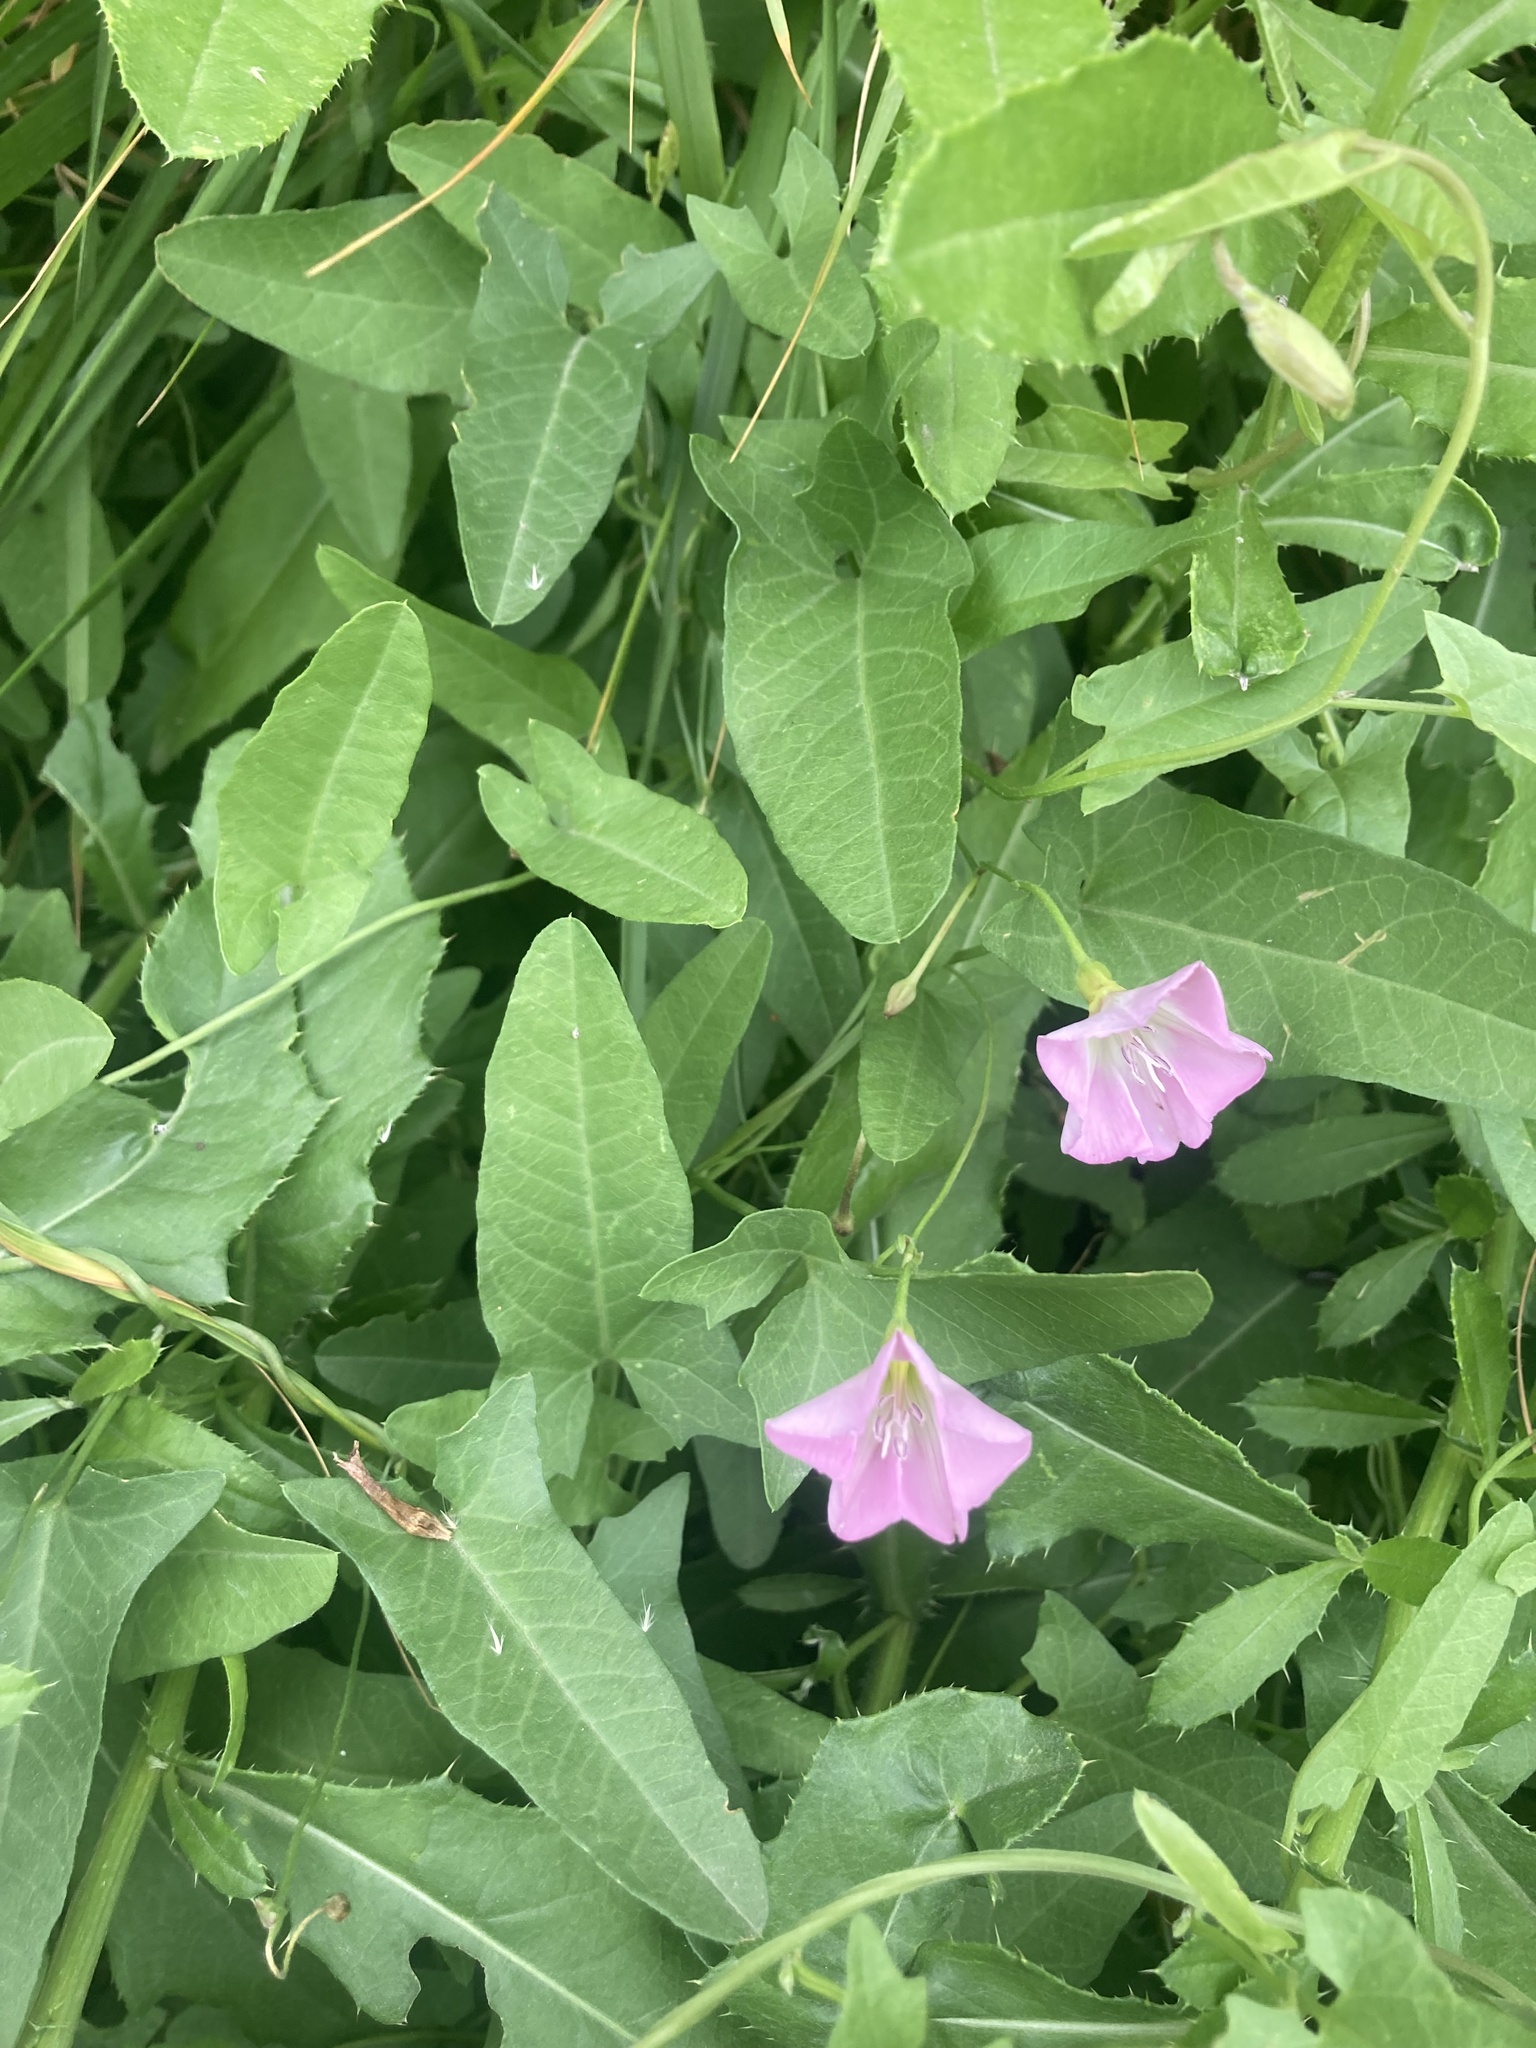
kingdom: Plantae
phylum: Tracheophyta
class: Magnoliopsida
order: Solanales
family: Convolvulaceae
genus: Convolvulus
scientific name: Convolvulus arvensis
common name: Field bindweed
